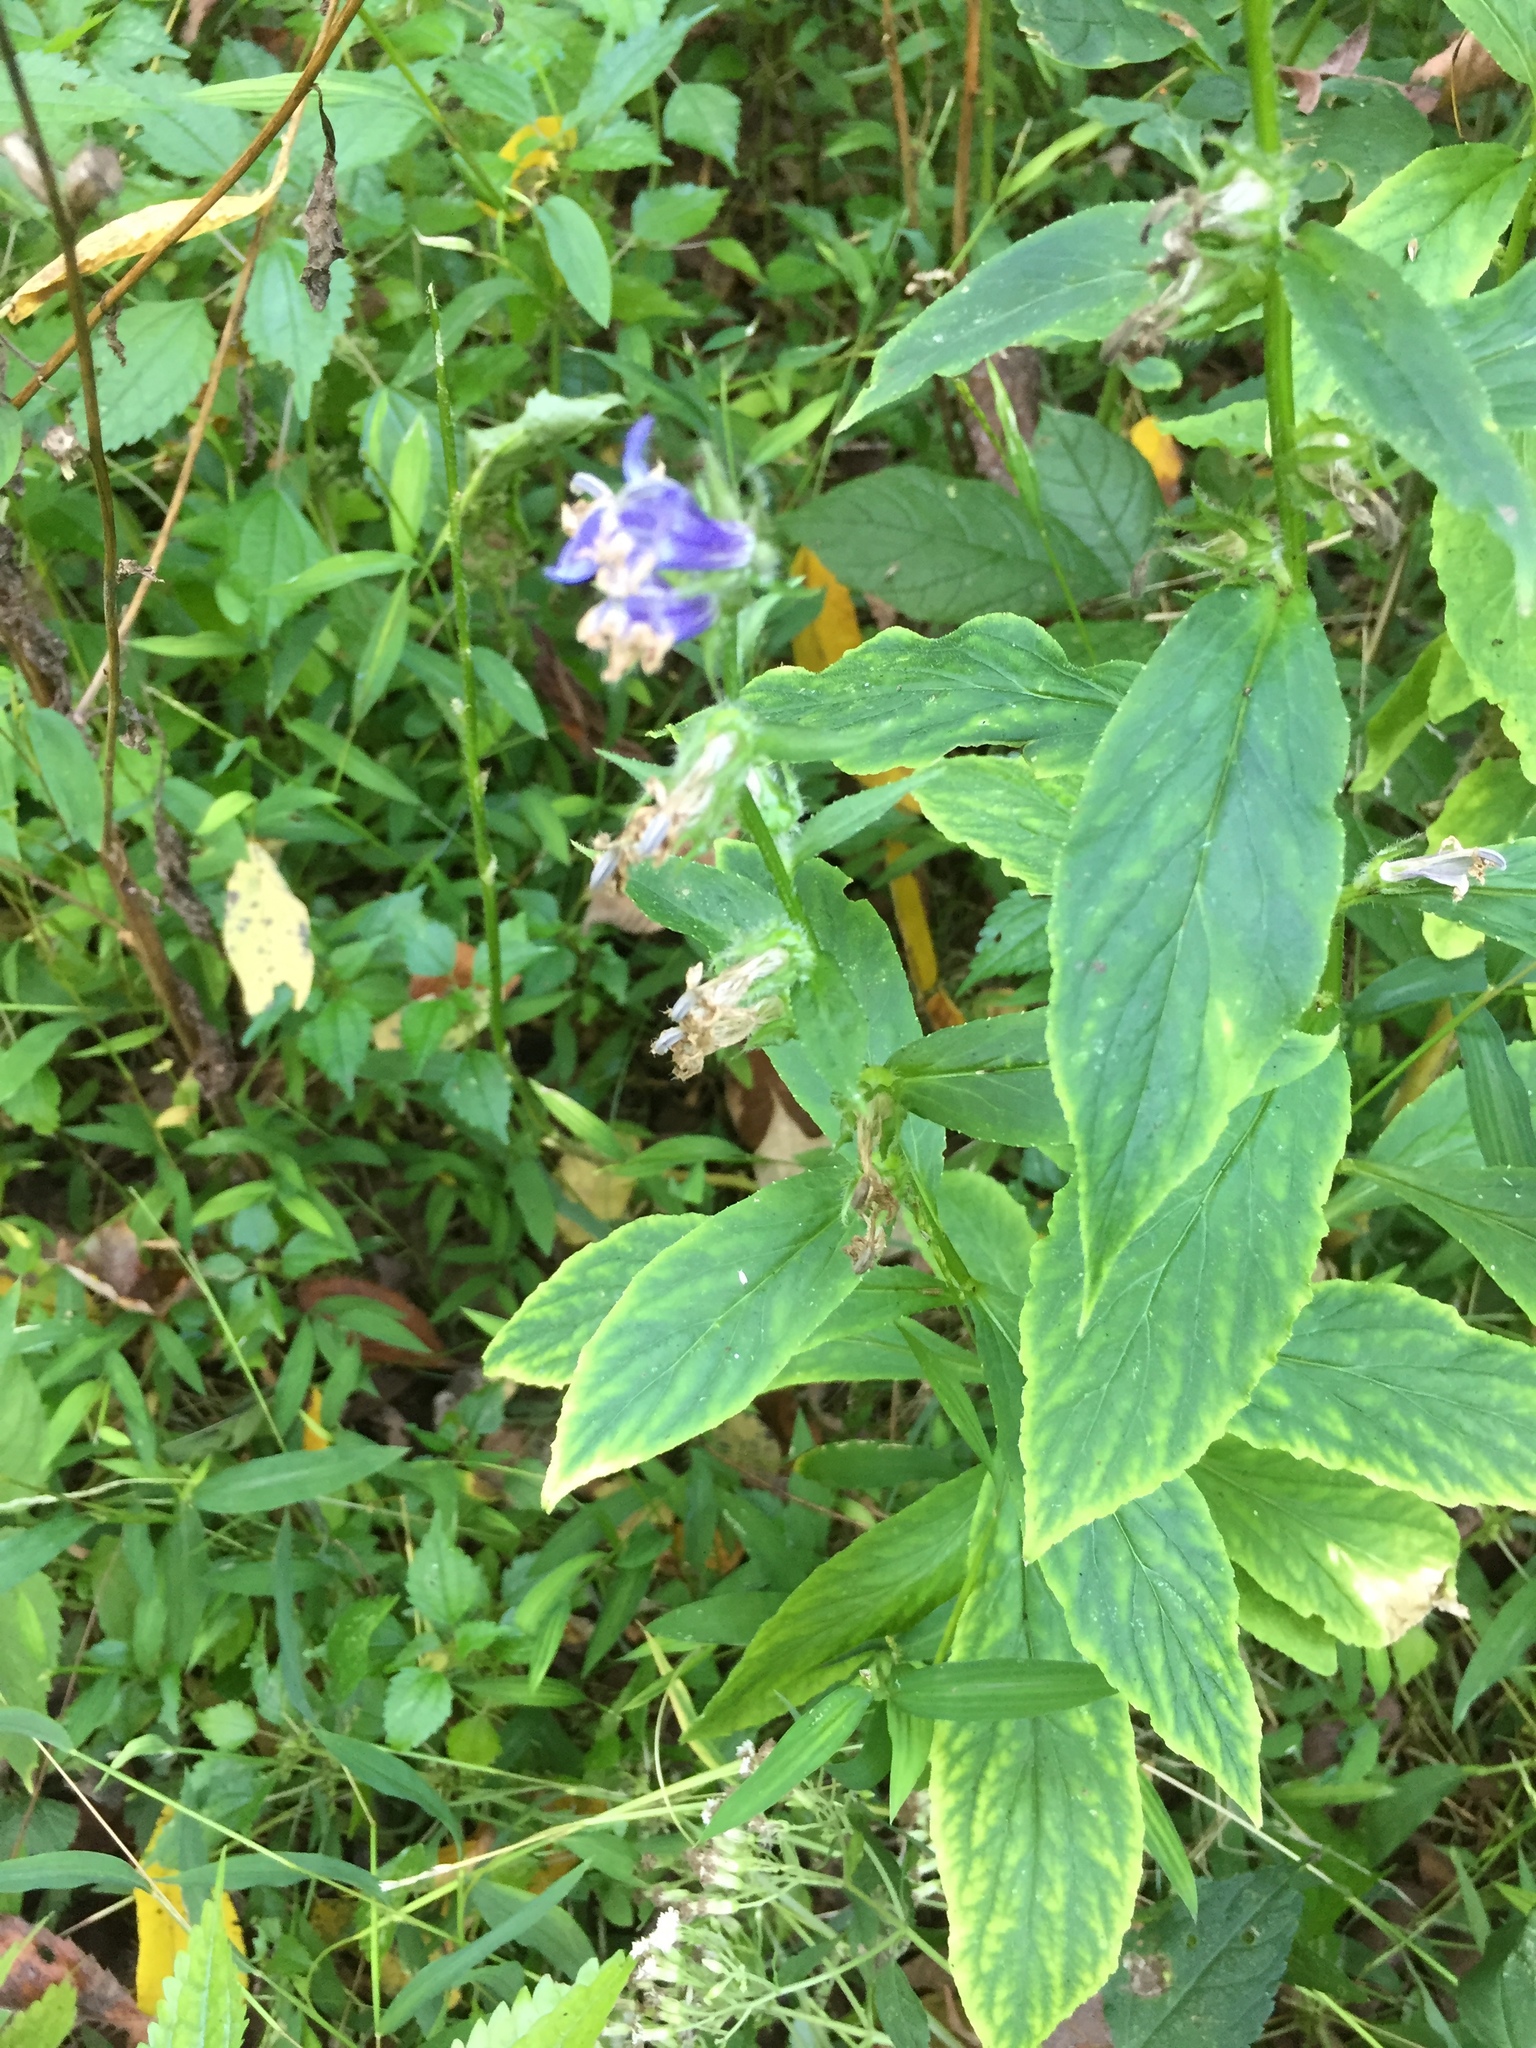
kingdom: Plantae
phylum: Tracheophyta
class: Magnoliopsida
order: Asterales
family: Campanulaceae
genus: Lobelia
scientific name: Lobelia siphilitica
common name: Great lobelia
